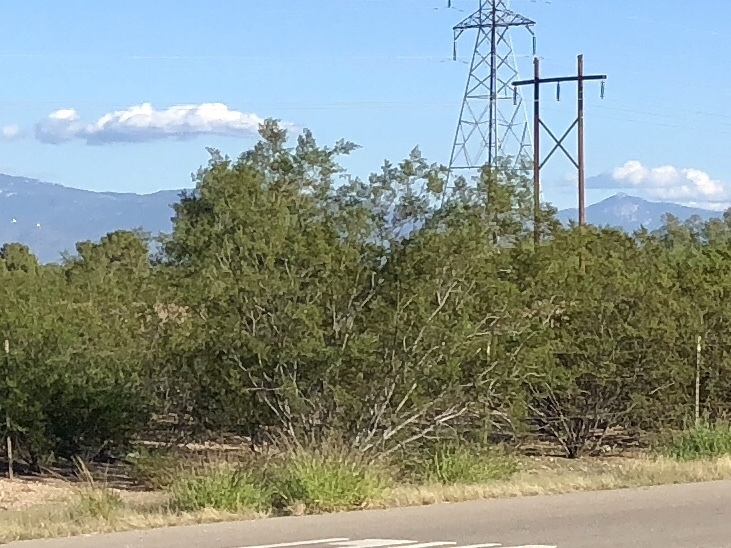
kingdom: Plantae
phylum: Tracheophyta
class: Magnoliopsida
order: Zygophyllales
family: Zygophyllaceae
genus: Larrea
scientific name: Larrea tridentata
